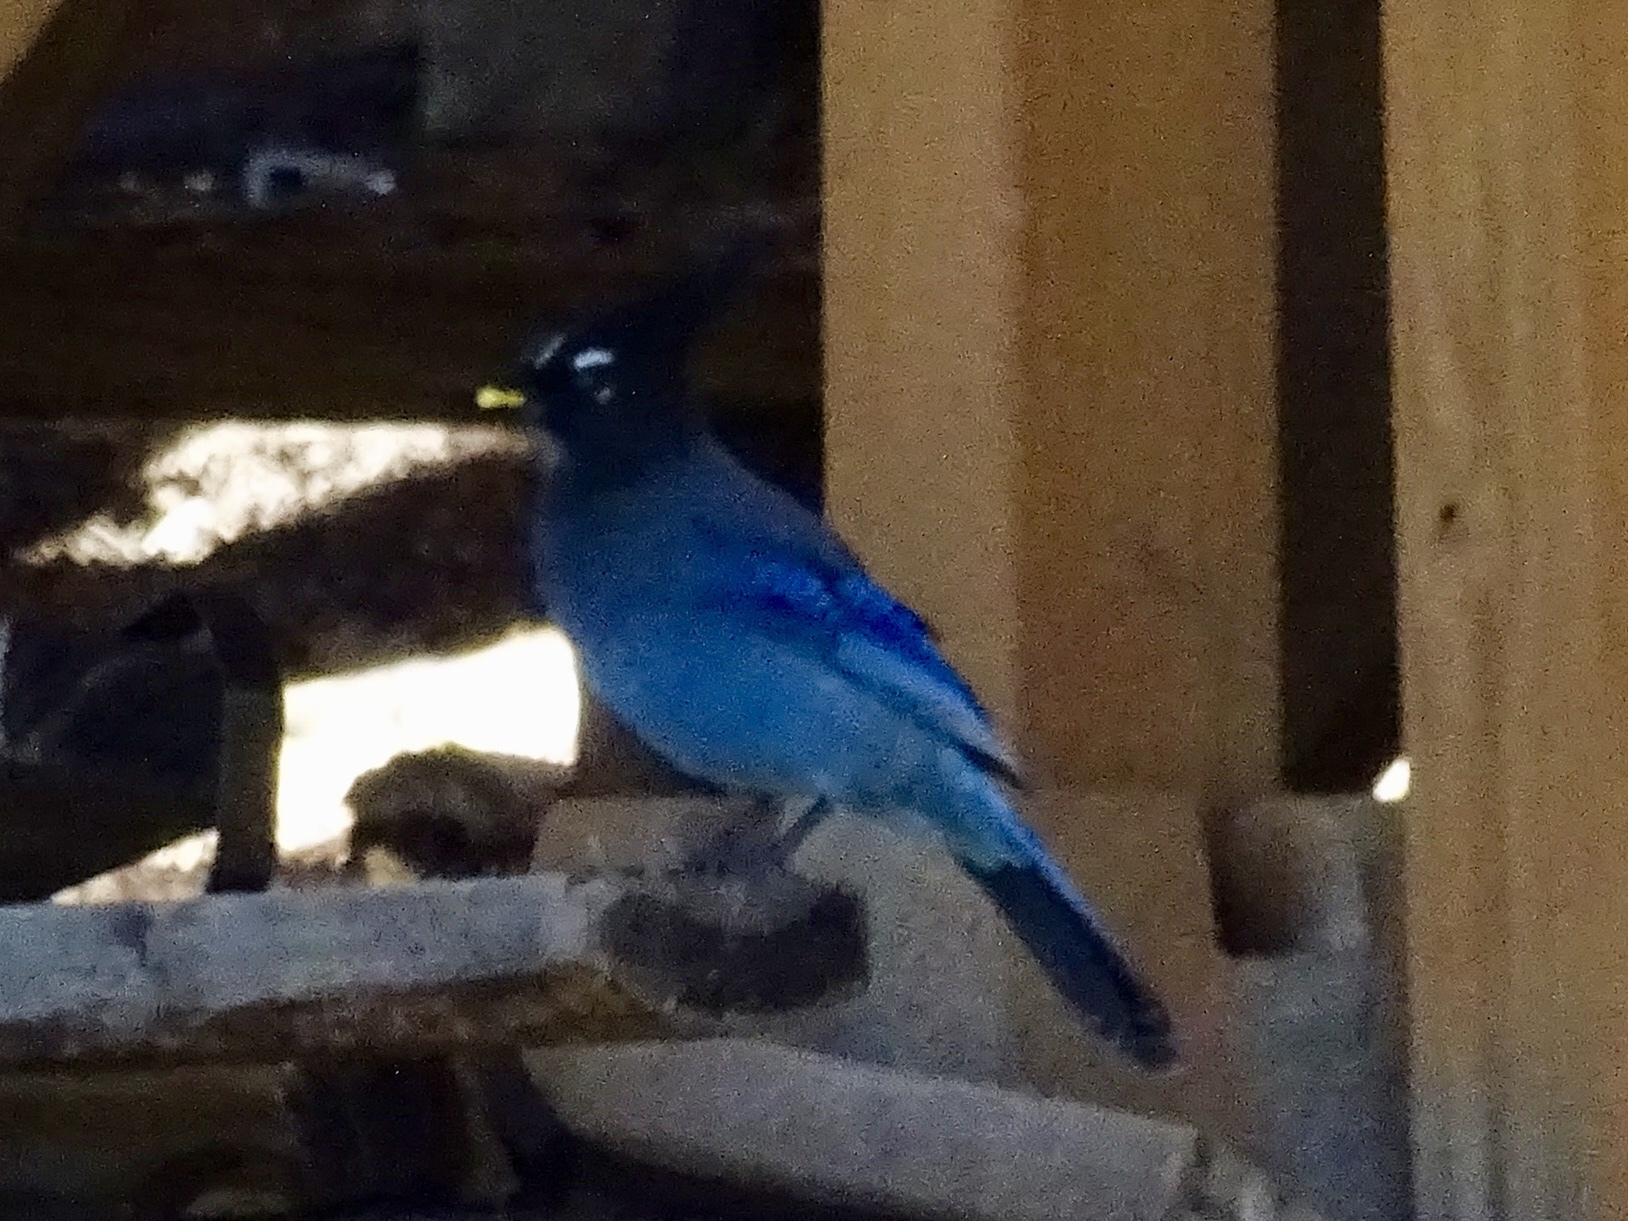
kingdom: Animalia
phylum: Chordata
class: Aves
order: Passeriformes
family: Corvidae
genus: Cyanocitta
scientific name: Cyanocitta stelleri
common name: Steller's jay
